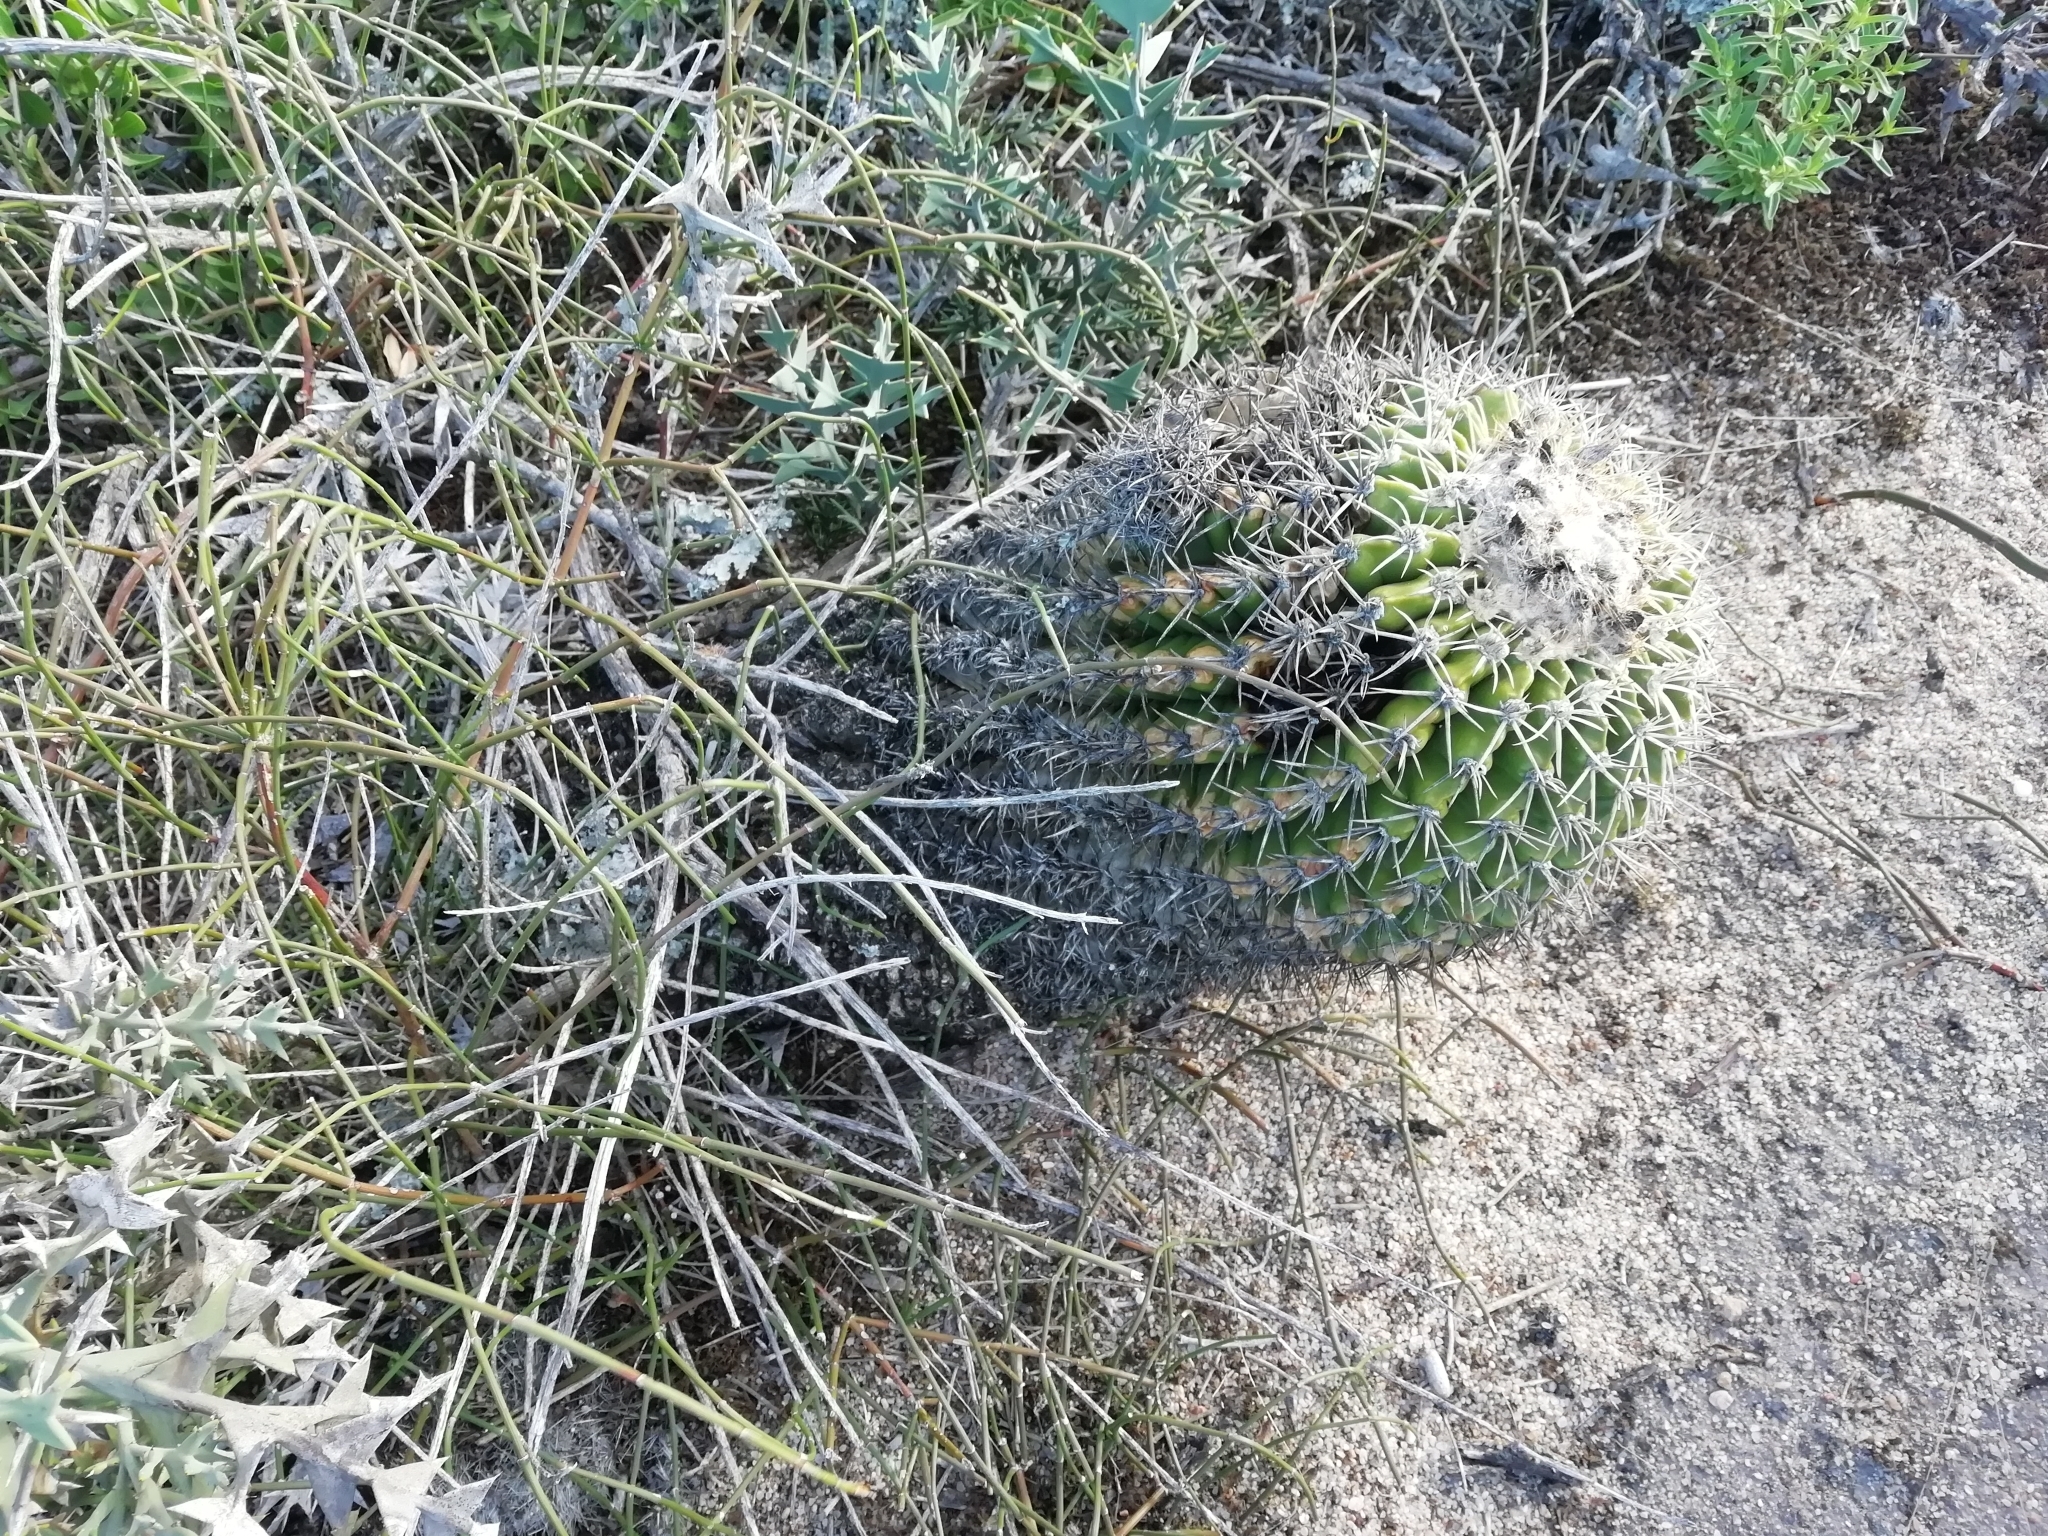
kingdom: Plantae
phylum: Tracheophyta
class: Magnoliopsida
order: Caryophyllales
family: Cactaceae
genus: Parodia
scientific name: Parodia erinacea
